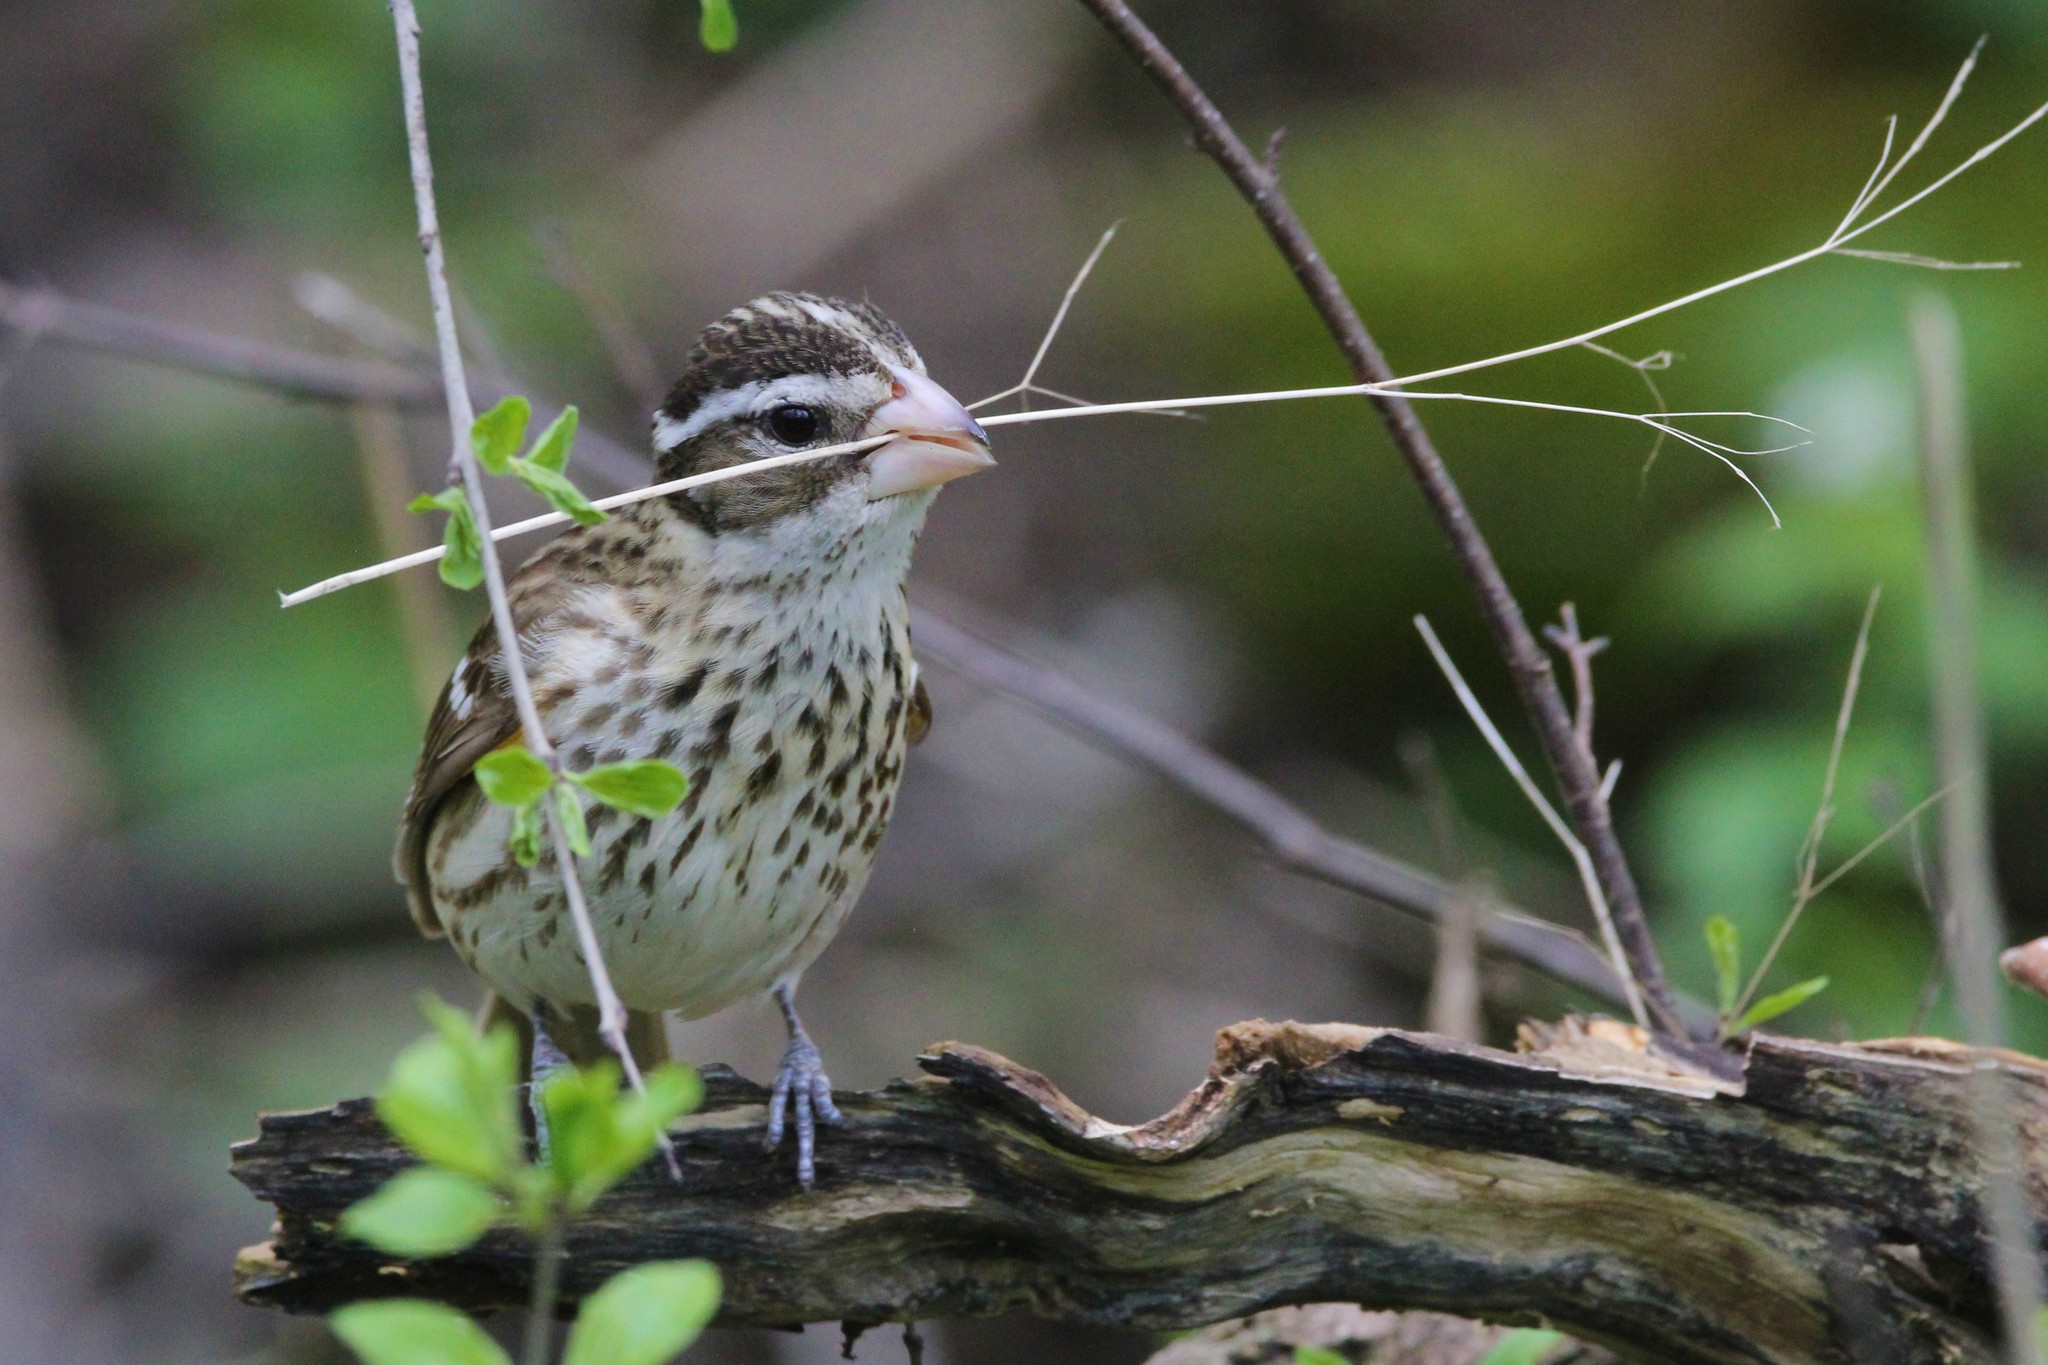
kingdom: Animalia
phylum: Chordata
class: Aves
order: Passeriformes
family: Cardinalidae
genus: Pheucticus
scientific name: Pheucticus ludovicianus
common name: Rose-breasted grosbeak
